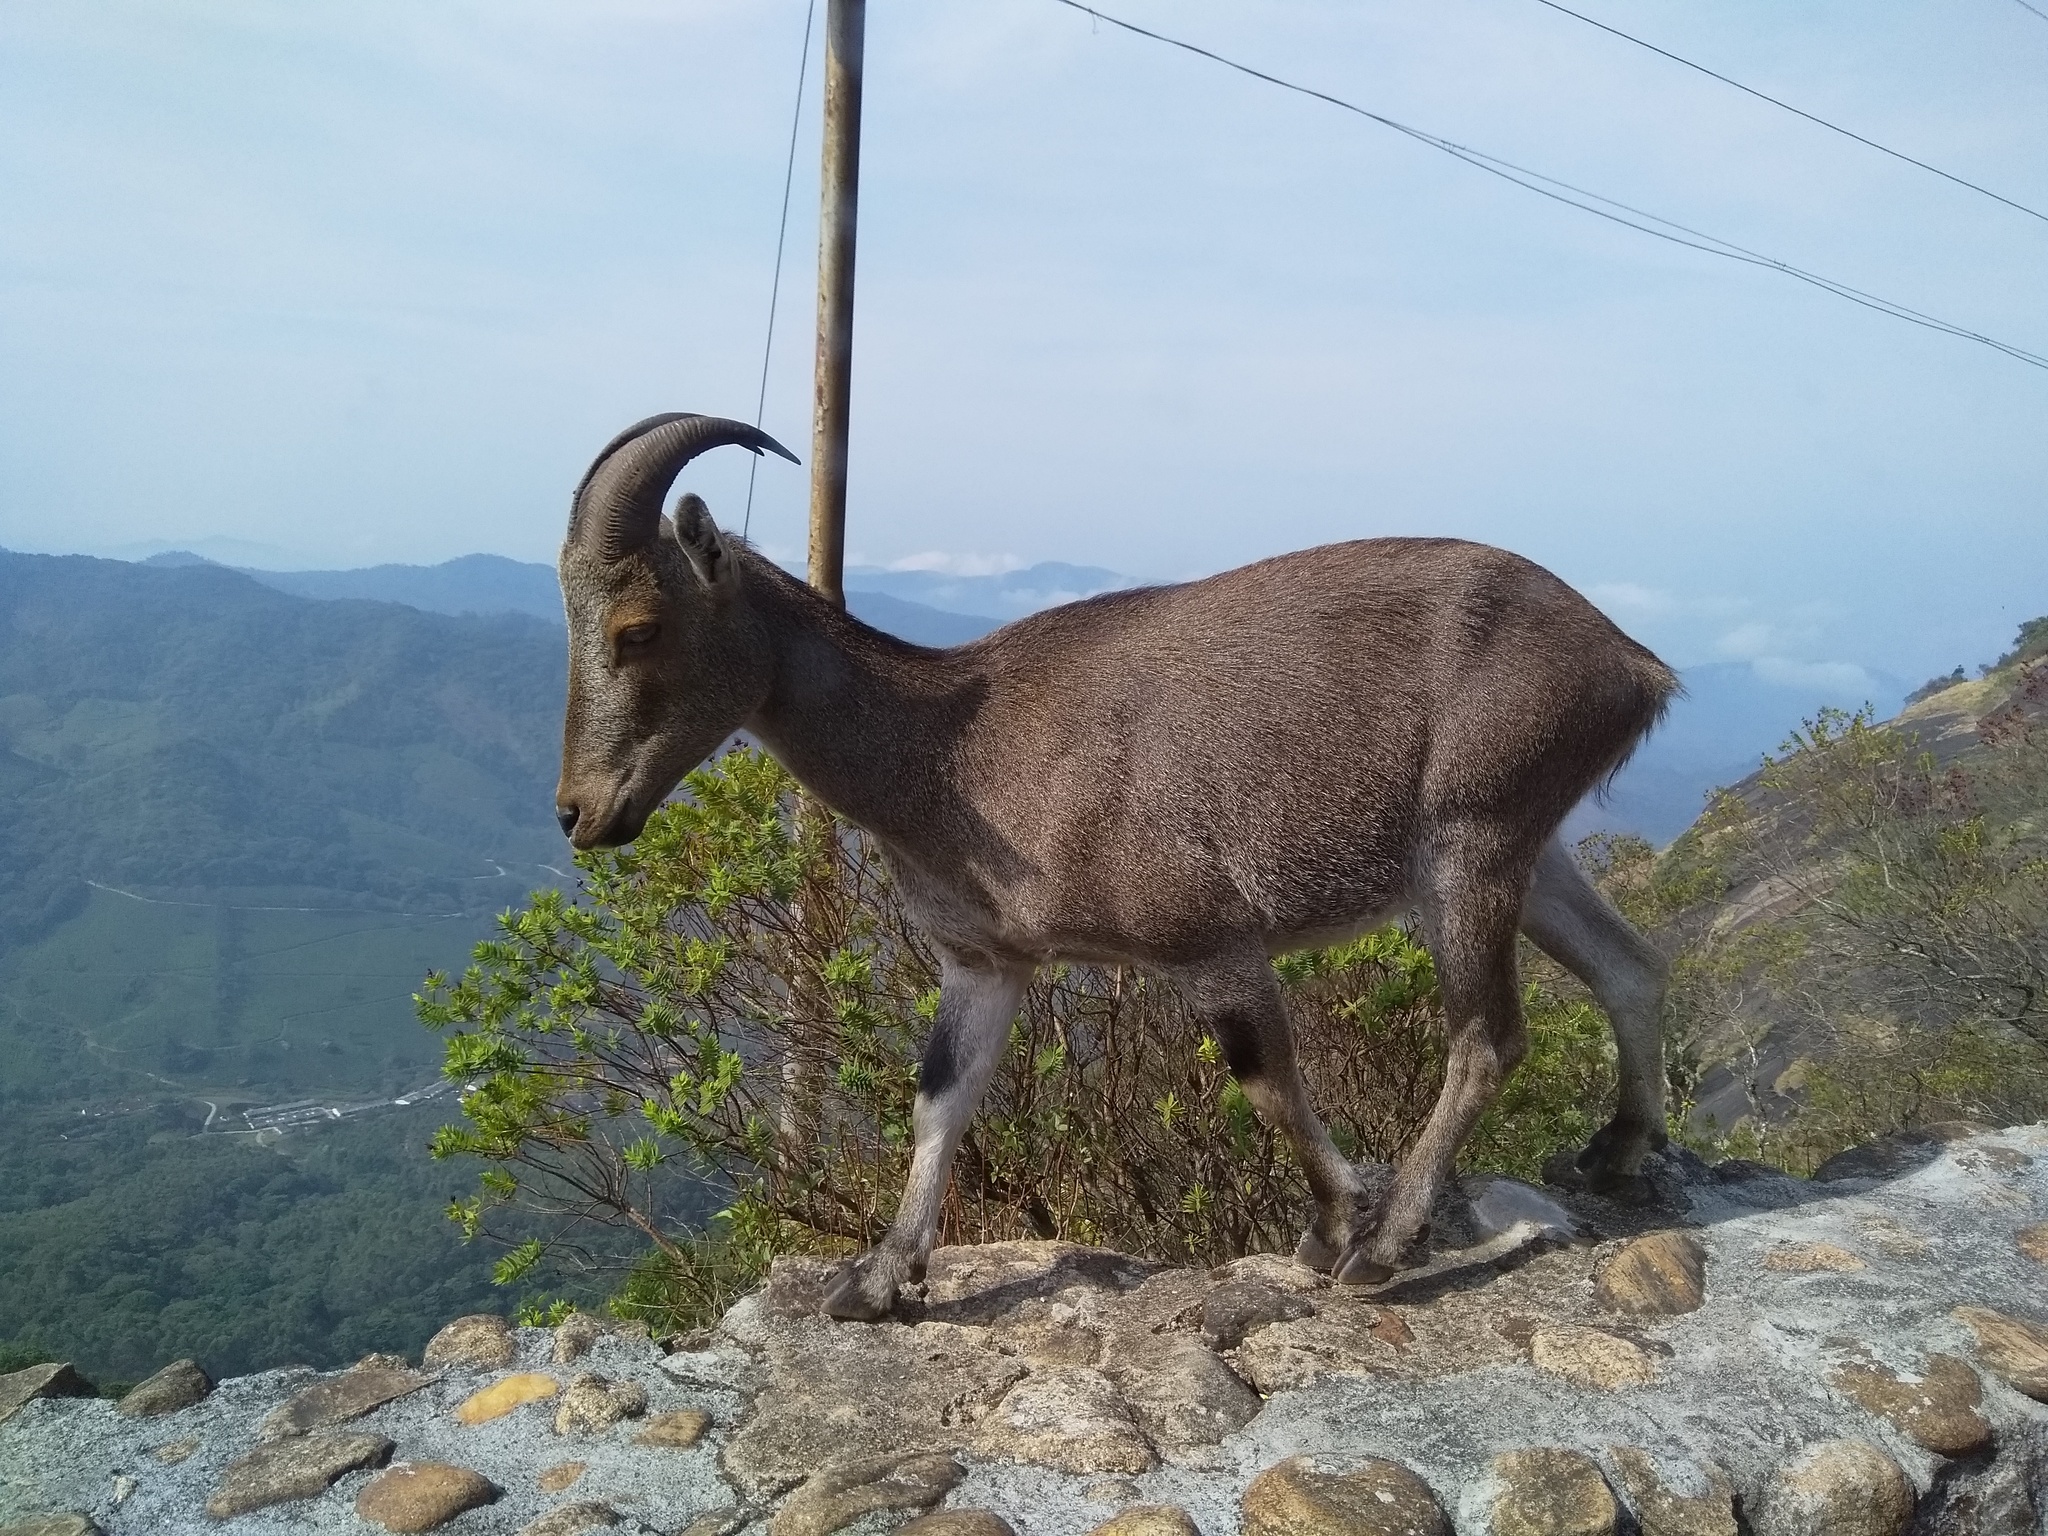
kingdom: Animalia
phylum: Chordata
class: Mammalia
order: Artiodactyla
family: Bovidae
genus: Hemitragus
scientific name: Hemitragus hylocrius
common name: Nilgiri tahr
